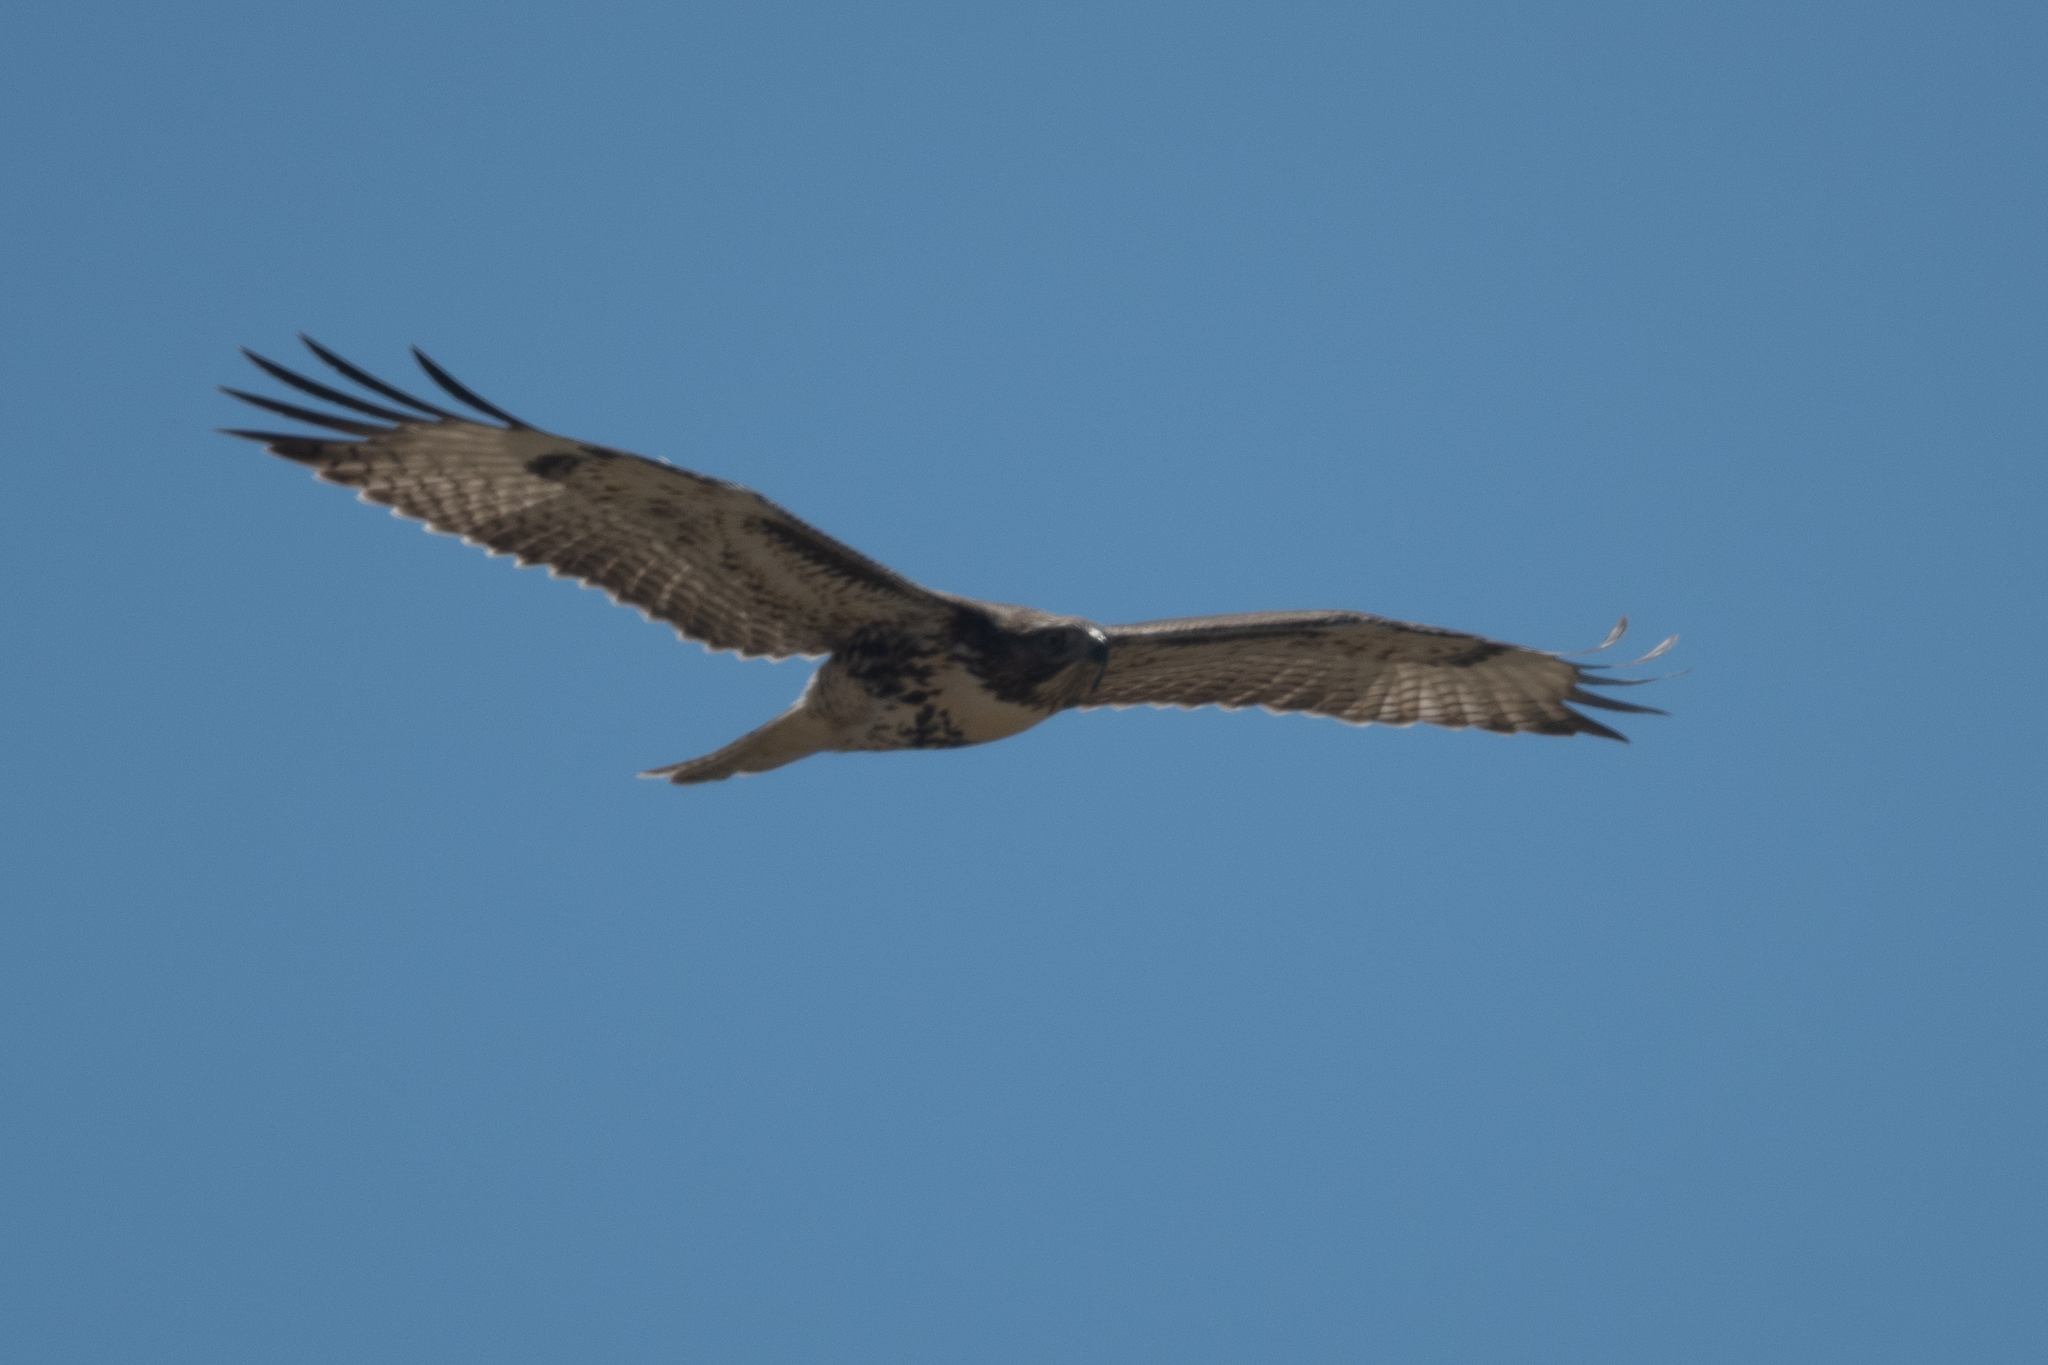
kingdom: Animalia
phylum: Chordata
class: Aves
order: Accipitriformes
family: Accipitridae
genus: Buteo
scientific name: Buteo jamaicensis
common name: Red-tailed hawk
